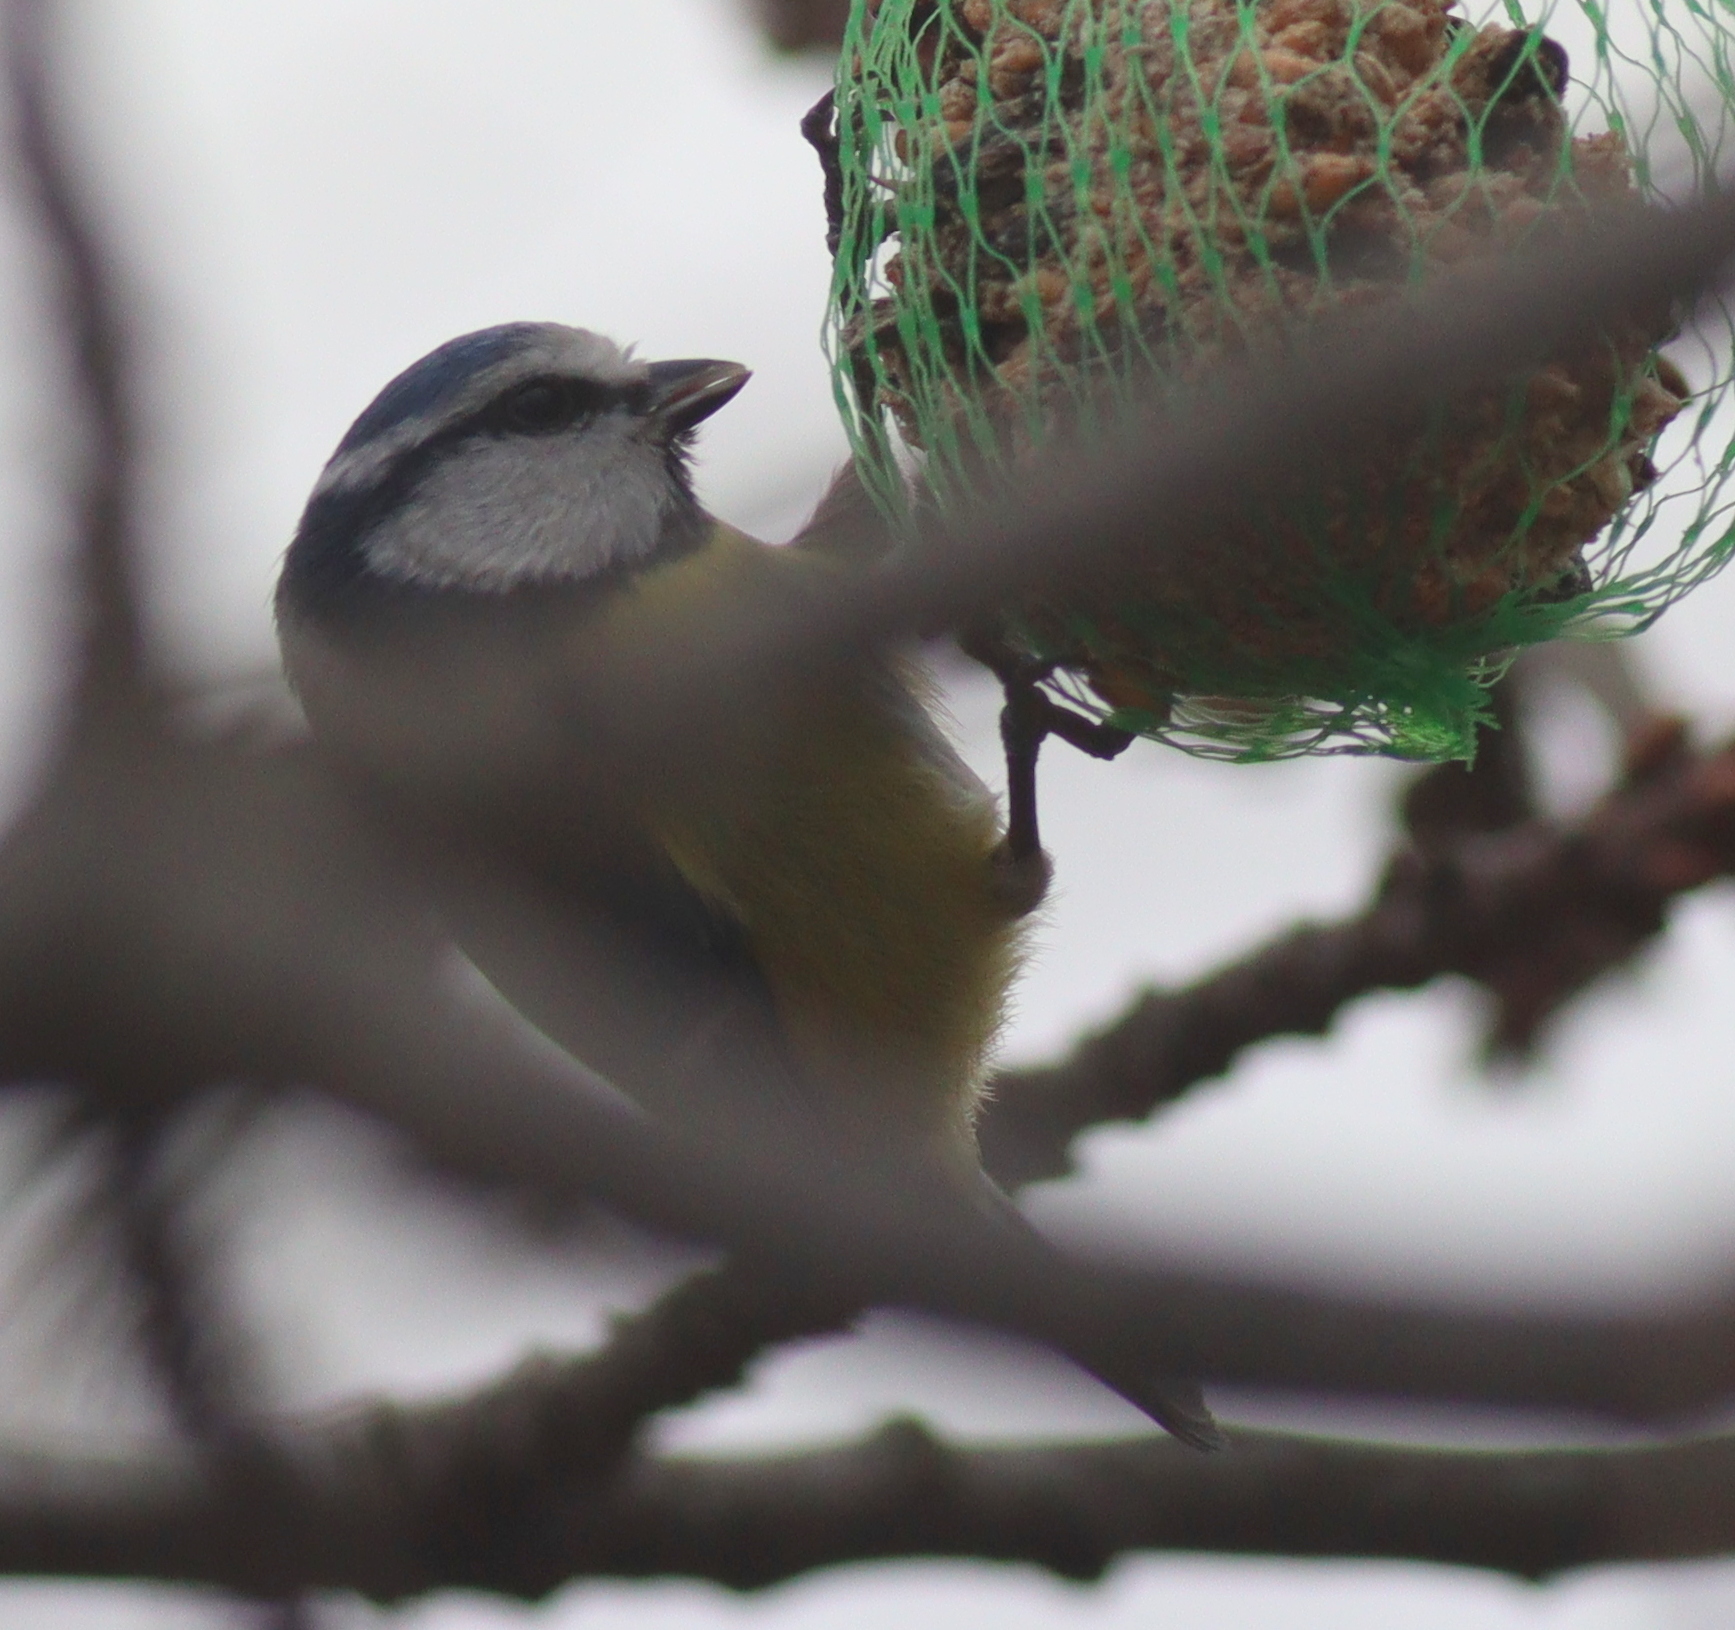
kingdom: Animalia
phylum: Chordata
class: Aves
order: Passeriformes
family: Paridae
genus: Cyanistes
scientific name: Cyanistes caeruleus
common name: Eurasian blue tit
